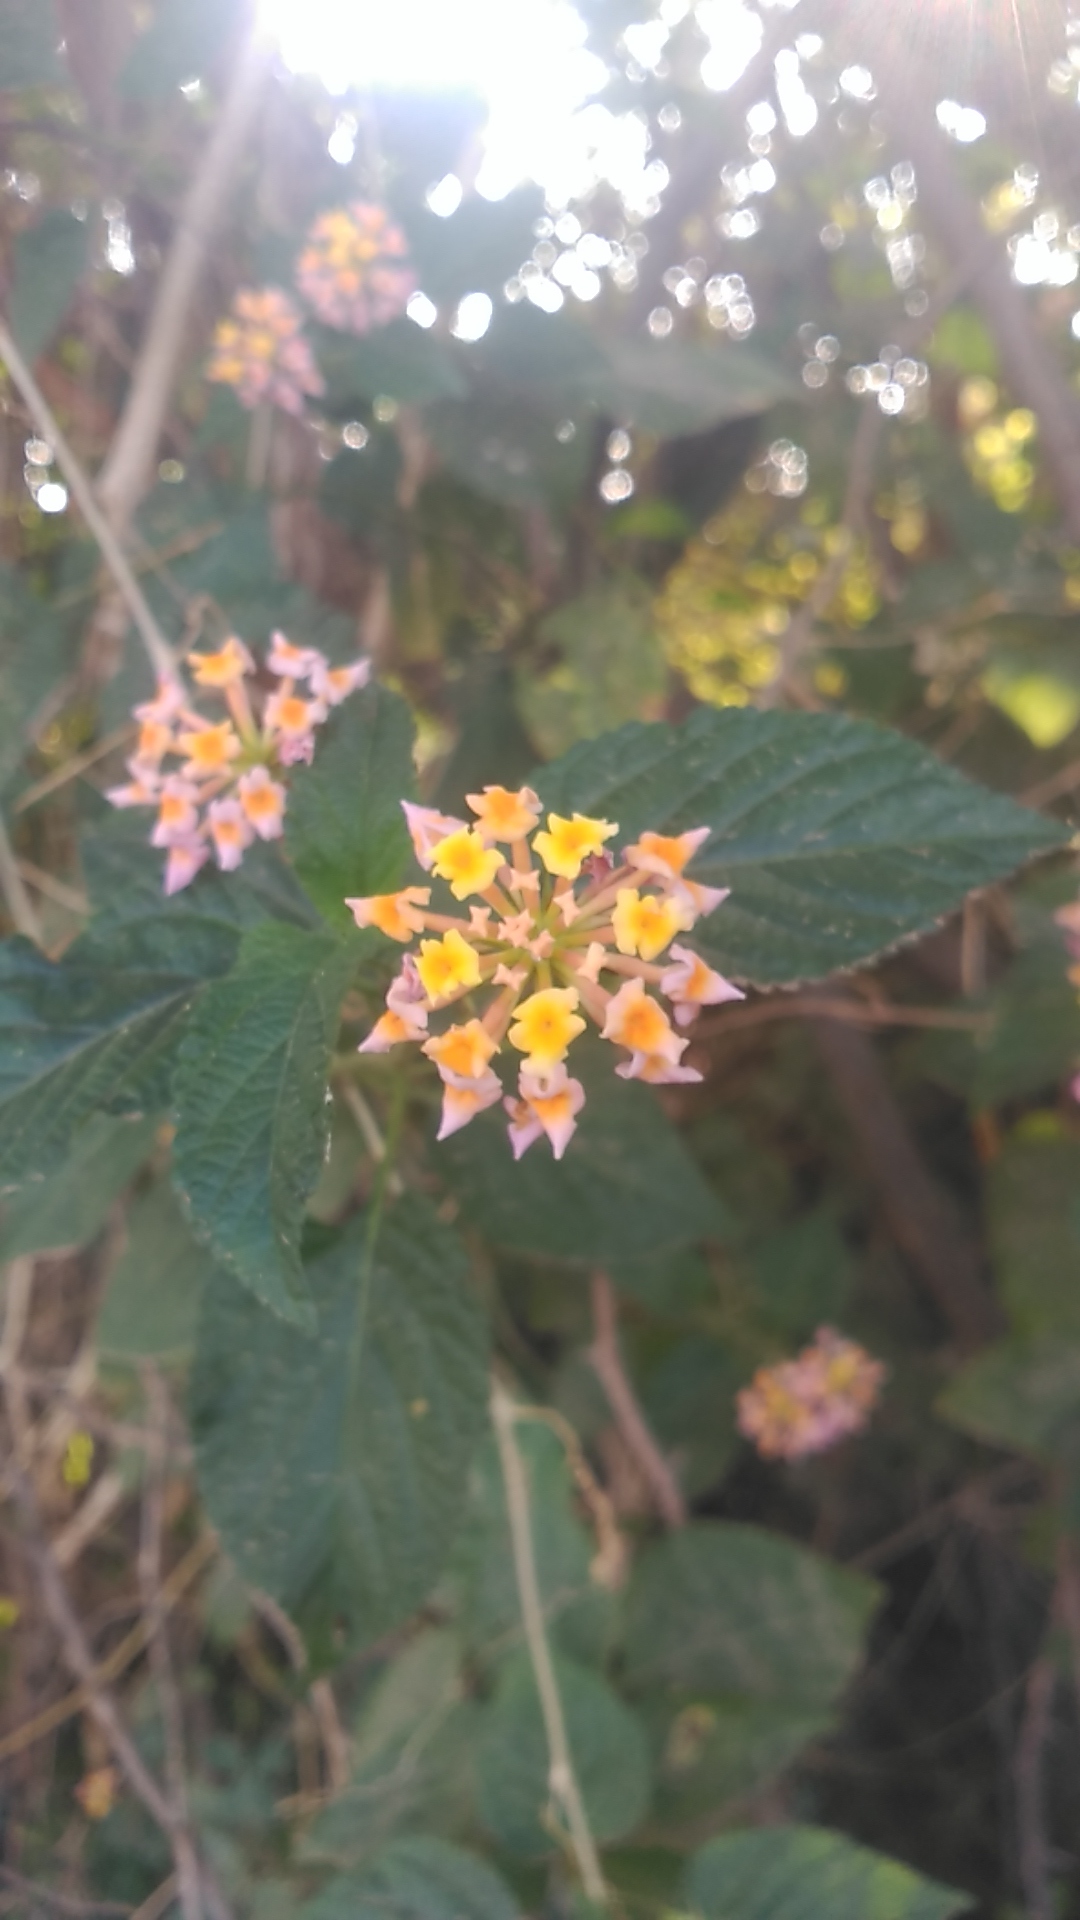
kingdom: Plantae
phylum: Tracheophyta
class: Magnoliopsida
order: Lamiales
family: Verbenaceae
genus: Lantana
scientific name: Lantana camara
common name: Lantana
